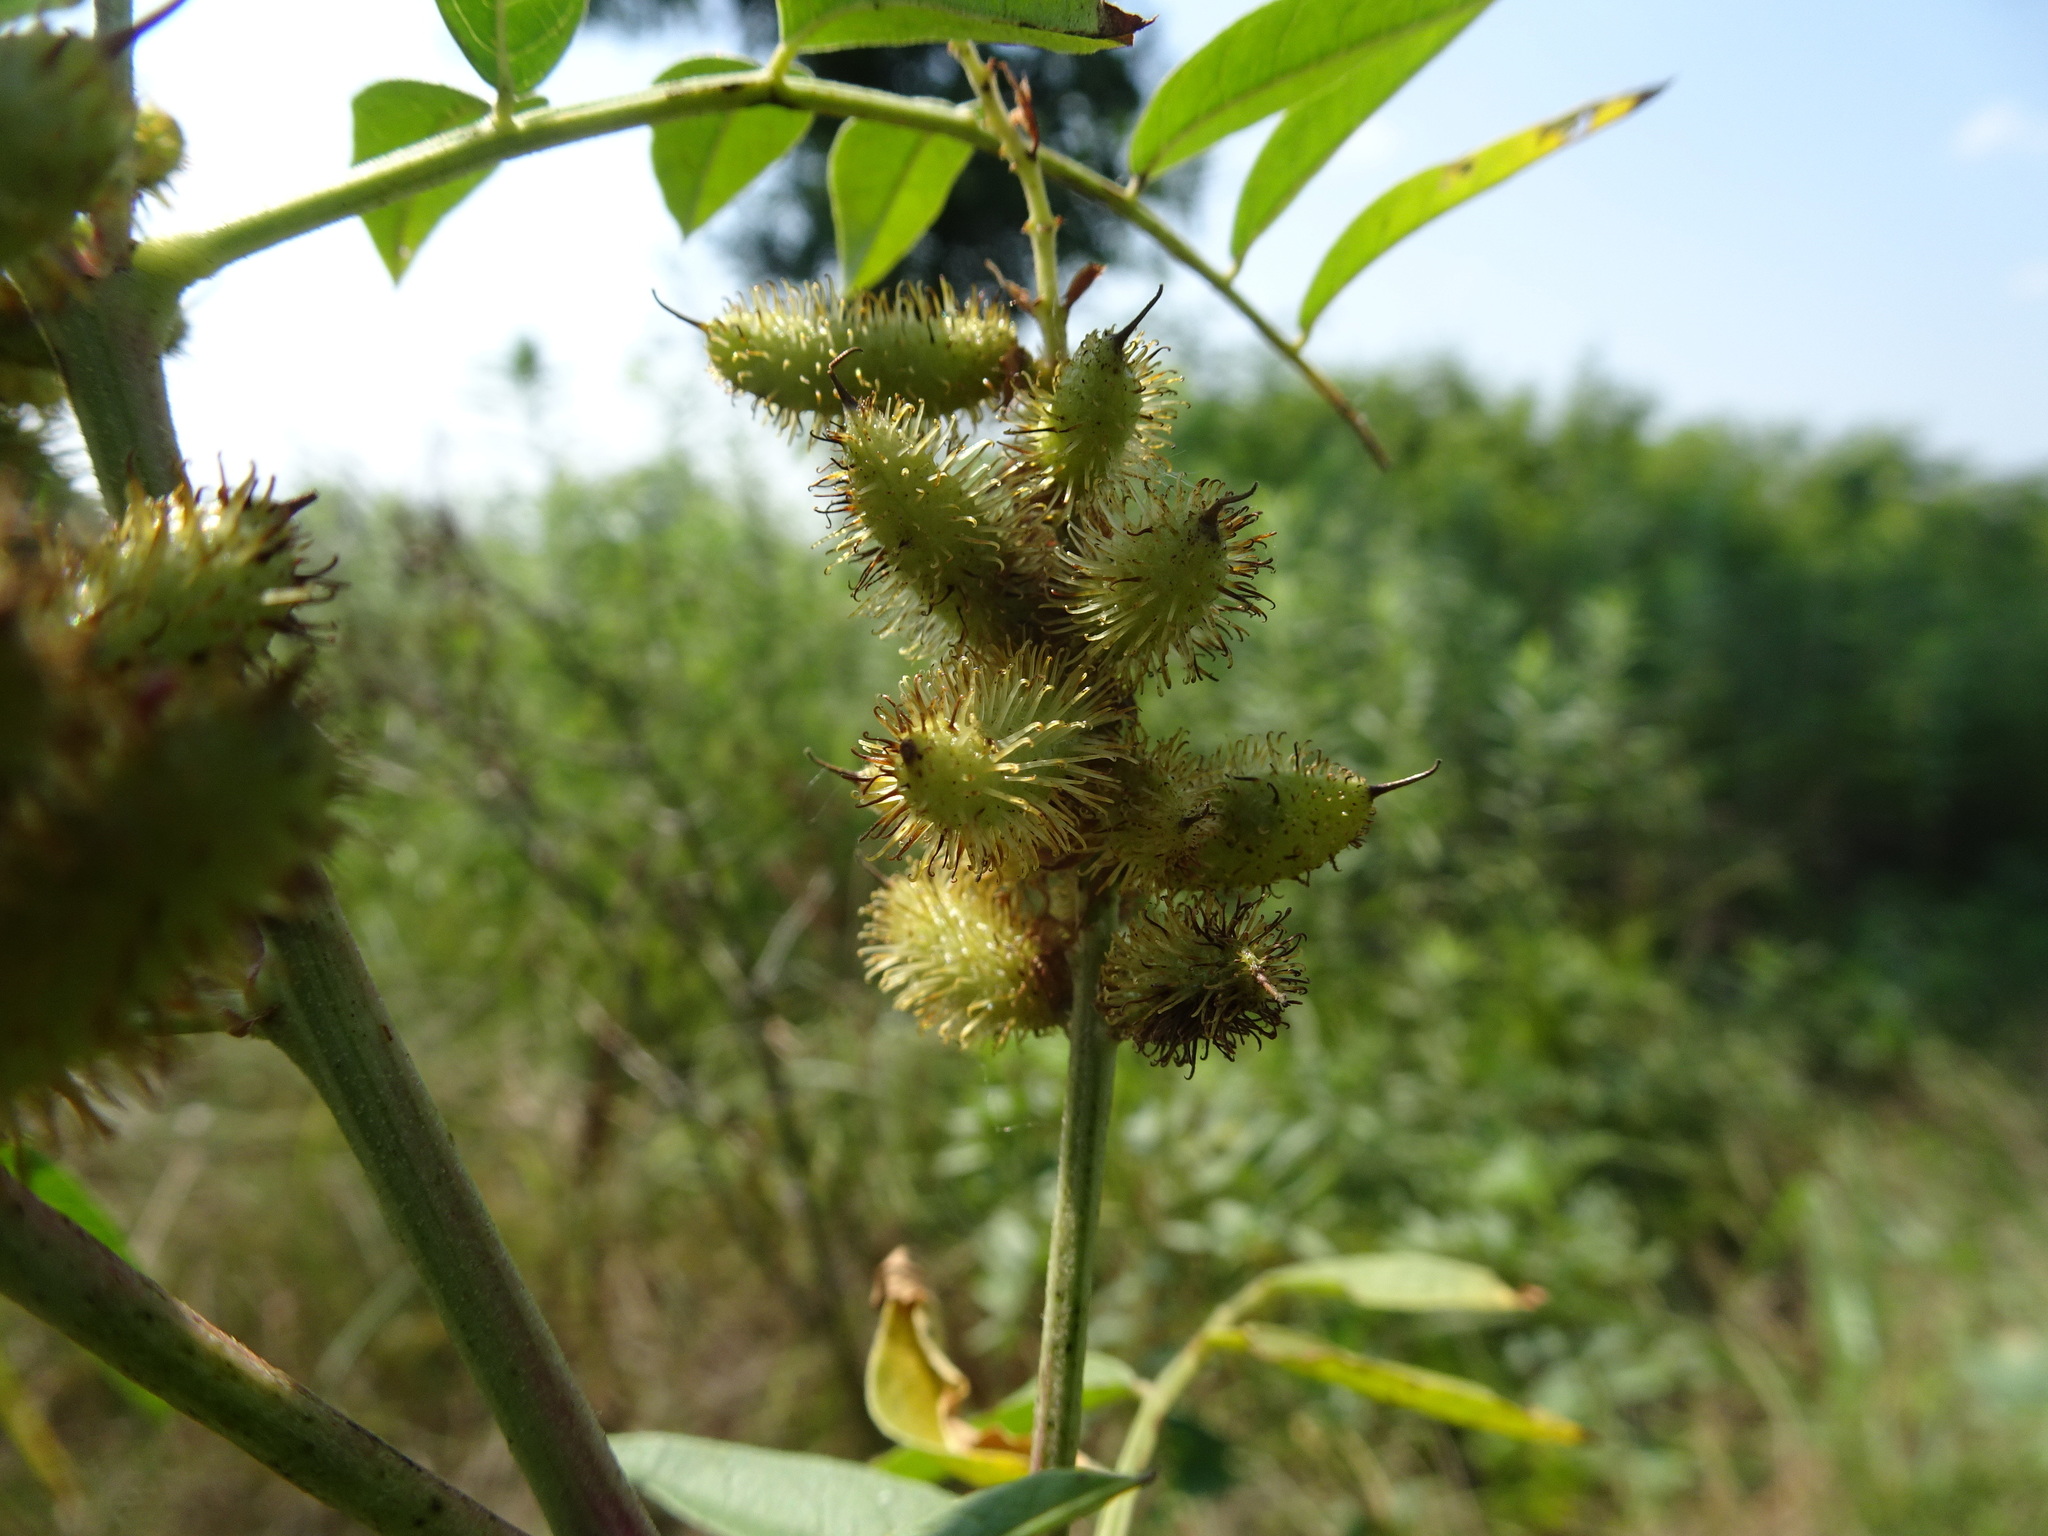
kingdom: Plantae
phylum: Tracheophyta
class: Magnoliopsida
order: Fabales
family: Fabaceae
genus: Glycyrrhiza
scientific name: Glycyrrhiza lepidota
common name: American liquorice
